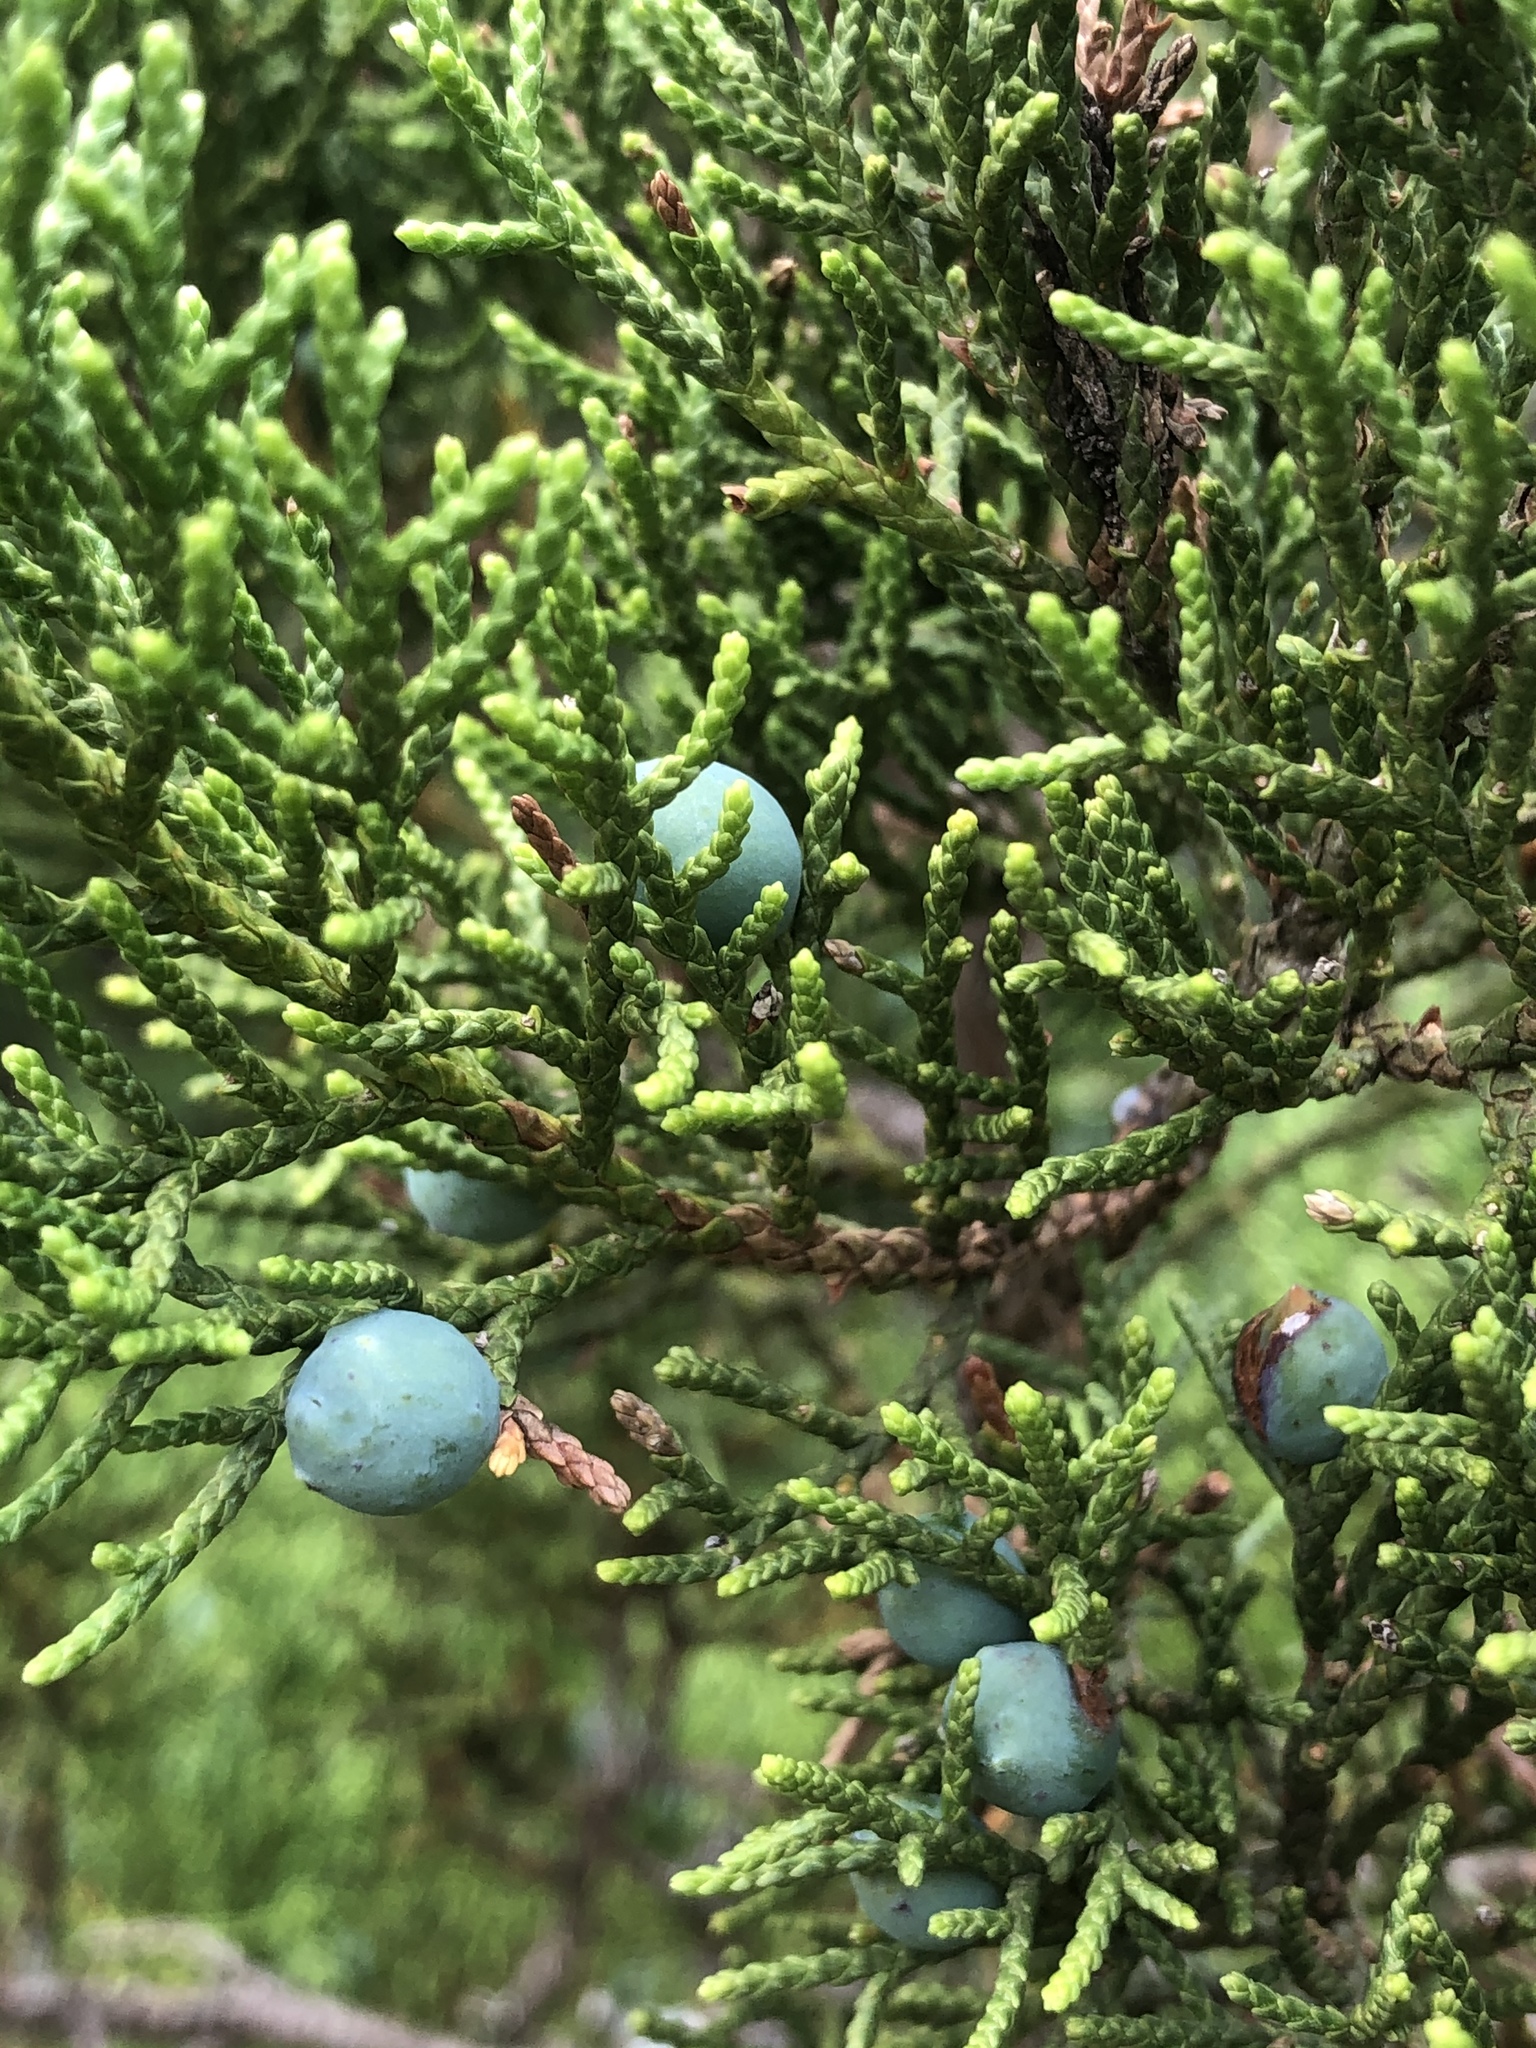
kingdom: Plantae
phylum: Tracheophyta
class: Pinopsida
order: Pinales
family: Cupressaceae
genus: Juniperus
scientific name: Juniperus ashei
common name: Mexican juniper
